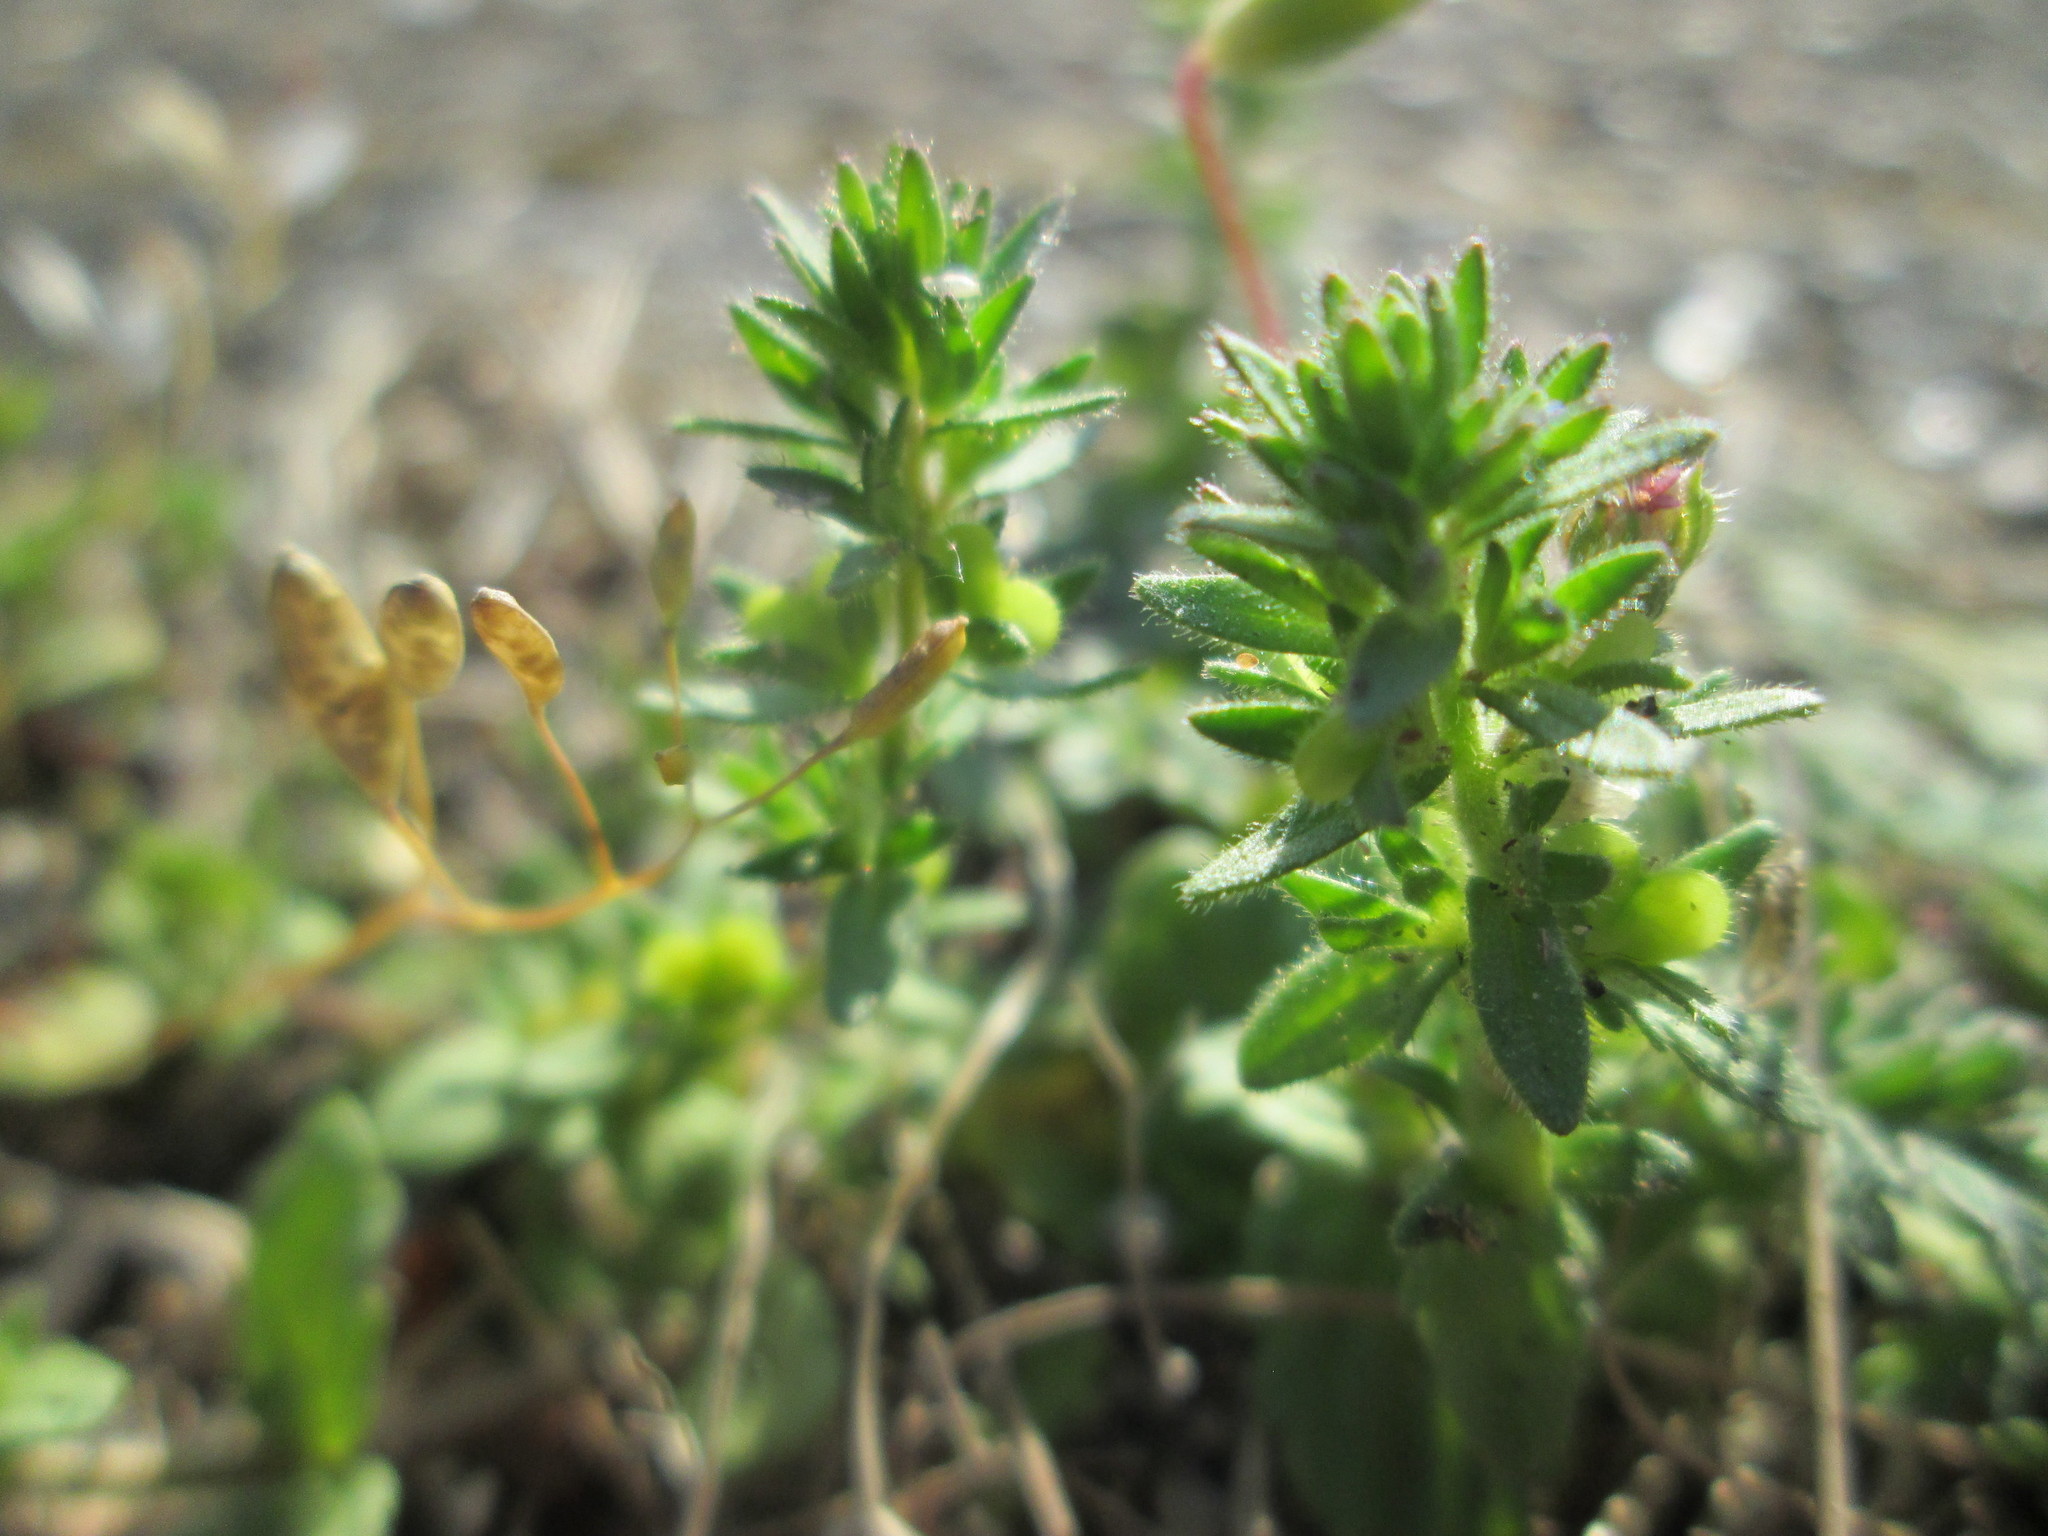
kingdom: Plantae
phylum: Tracheophyta
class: Magnoliopsida
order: Lamiales
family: Plantaginaceae
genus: Veronica
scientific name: Veronica arvensis
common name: Corn speedwell
